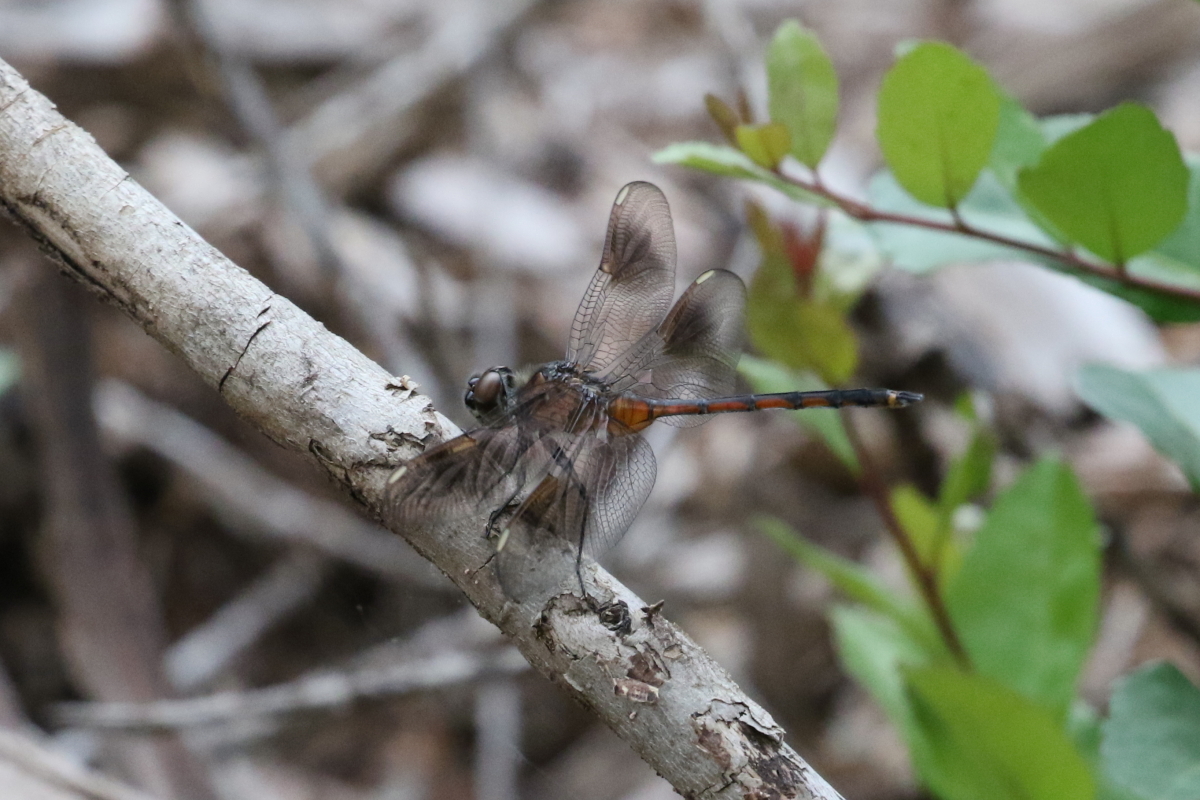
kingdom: Animalia
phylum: Arthropoda
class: Insecta
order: Odonata
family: Libellulidae
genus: Brachymesia
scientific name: Brachymesia gravida
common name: Four-spotted pennant
